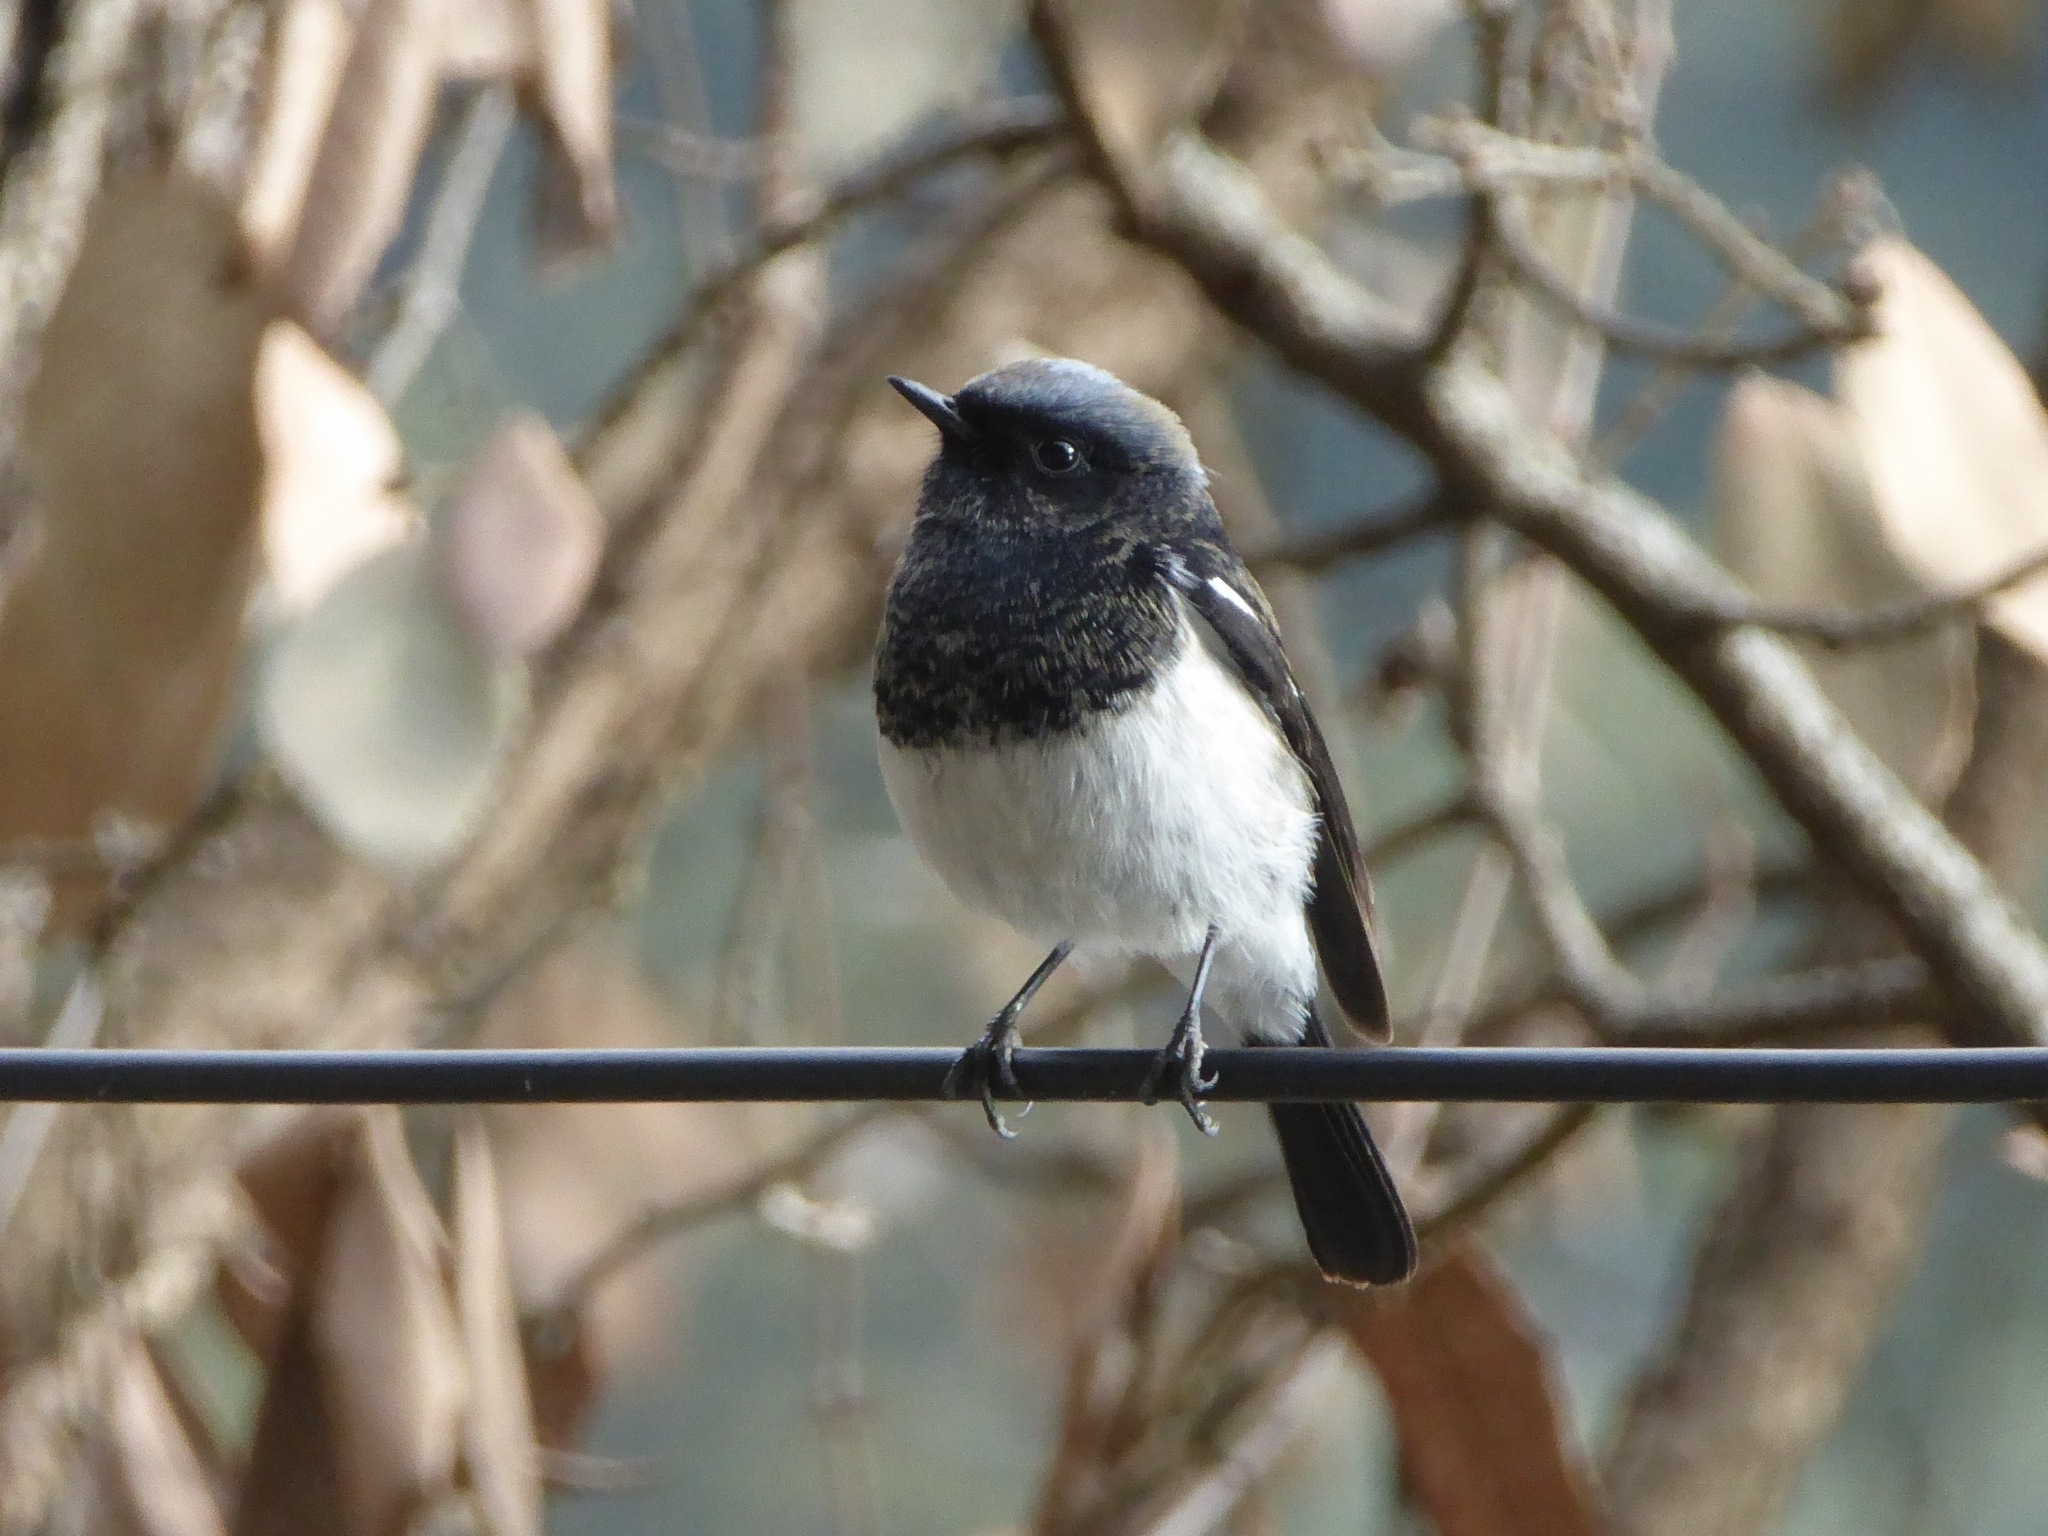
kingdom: Animalia
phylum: Chordata
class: Aves
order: Passeriformes
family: Muscicapidae
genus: Phoenicurus
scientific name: Phoenicurus coeruleocephala
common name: Blue-capped redstart
